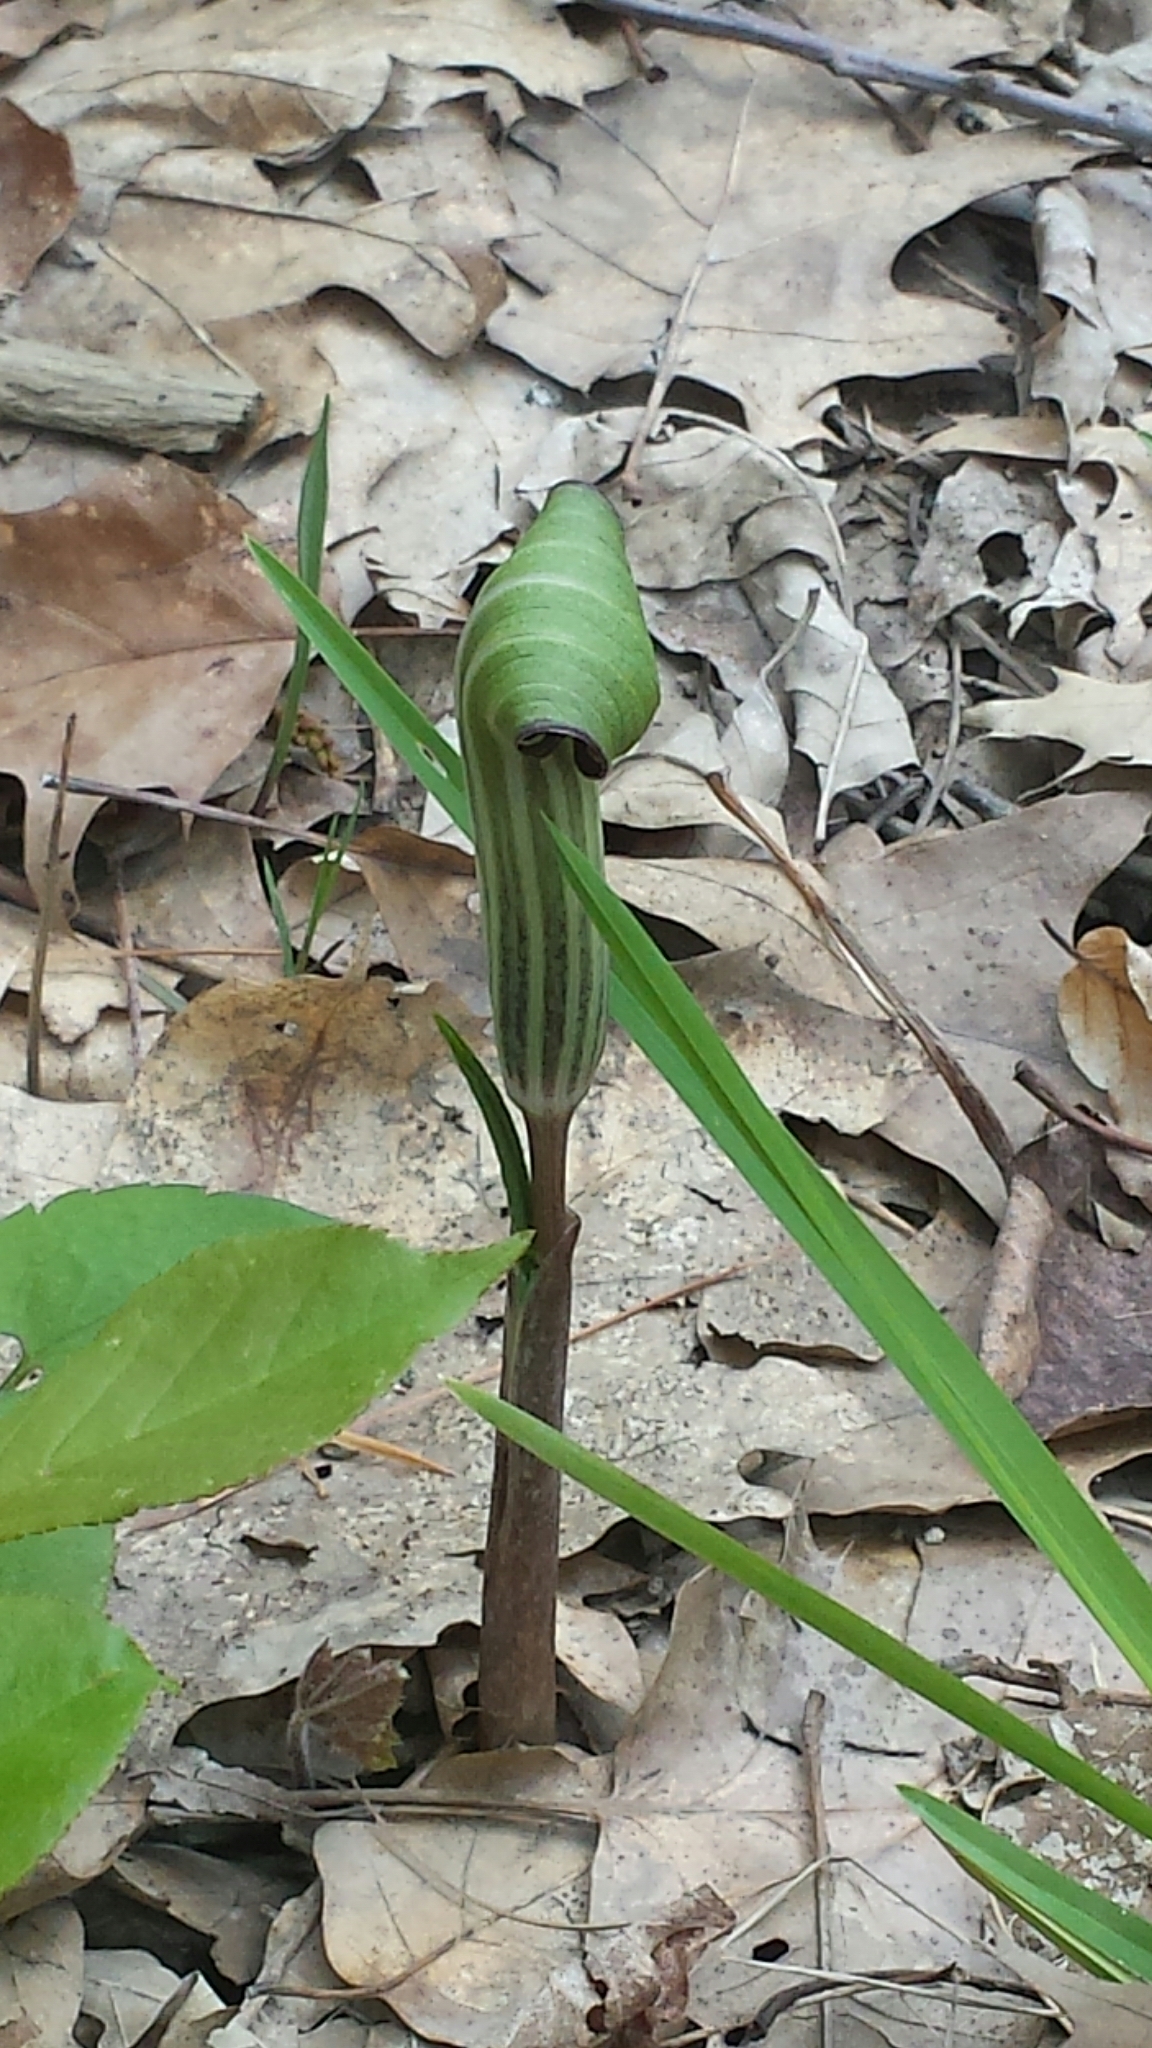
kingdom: Plantae
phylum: Tracheophyta
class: Liliopsida
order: Alismatales
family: Araceae
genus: Arisaema
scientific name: Arisaema triphyllum
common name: Jack-in-the-pulpit
